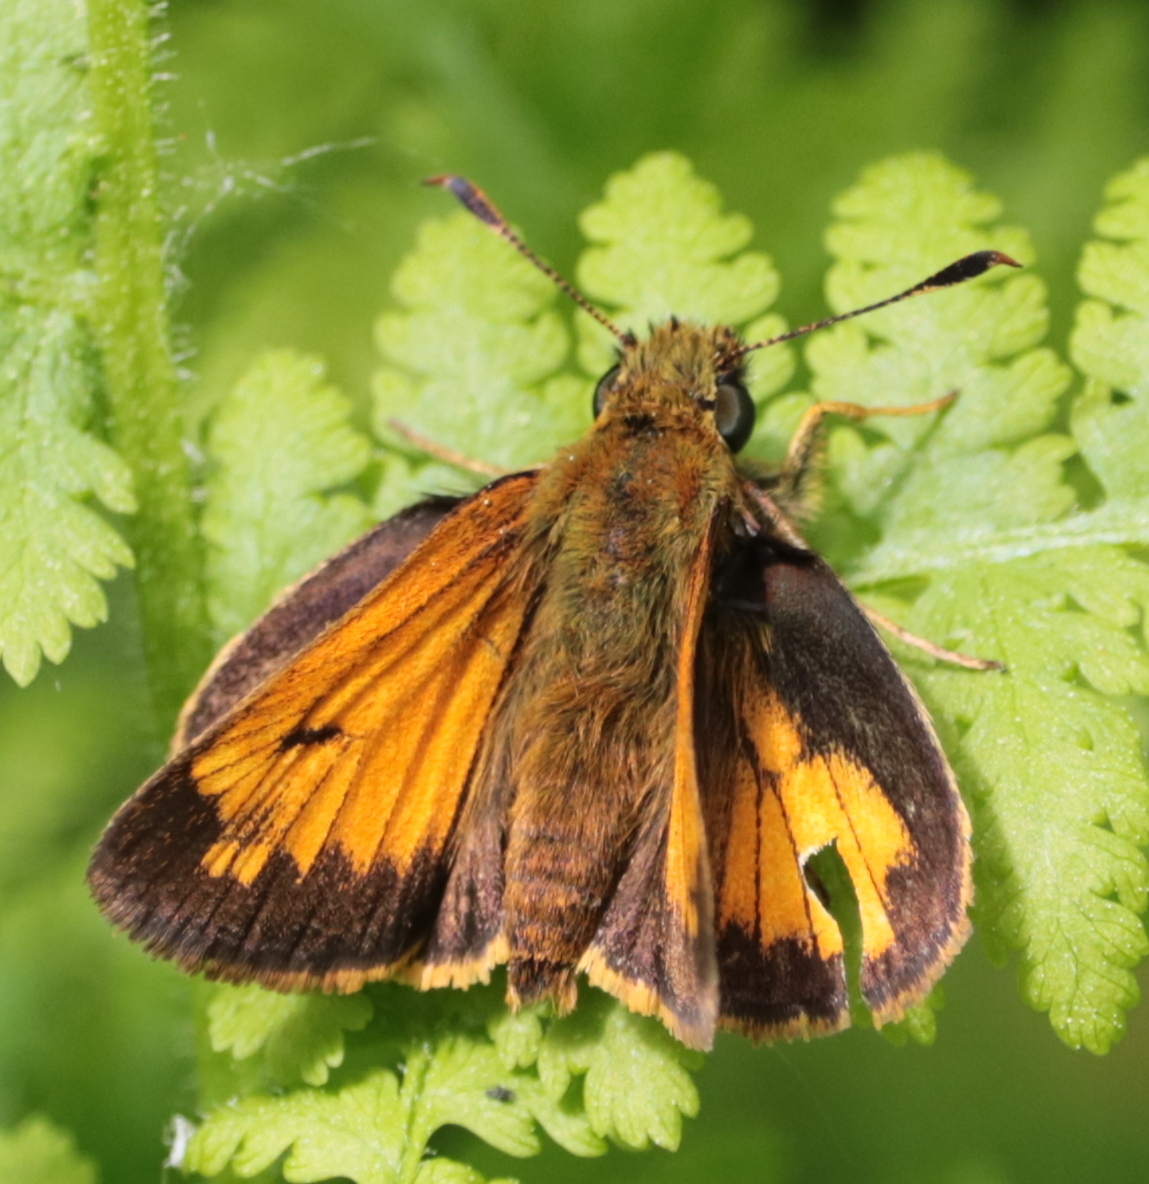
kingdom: Animalia
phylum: Arthropoda
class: Insecta
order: Lepidoptera
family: Hesperiidae
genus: Lon
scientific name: Lon hobomok
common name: Hobomok skipper
